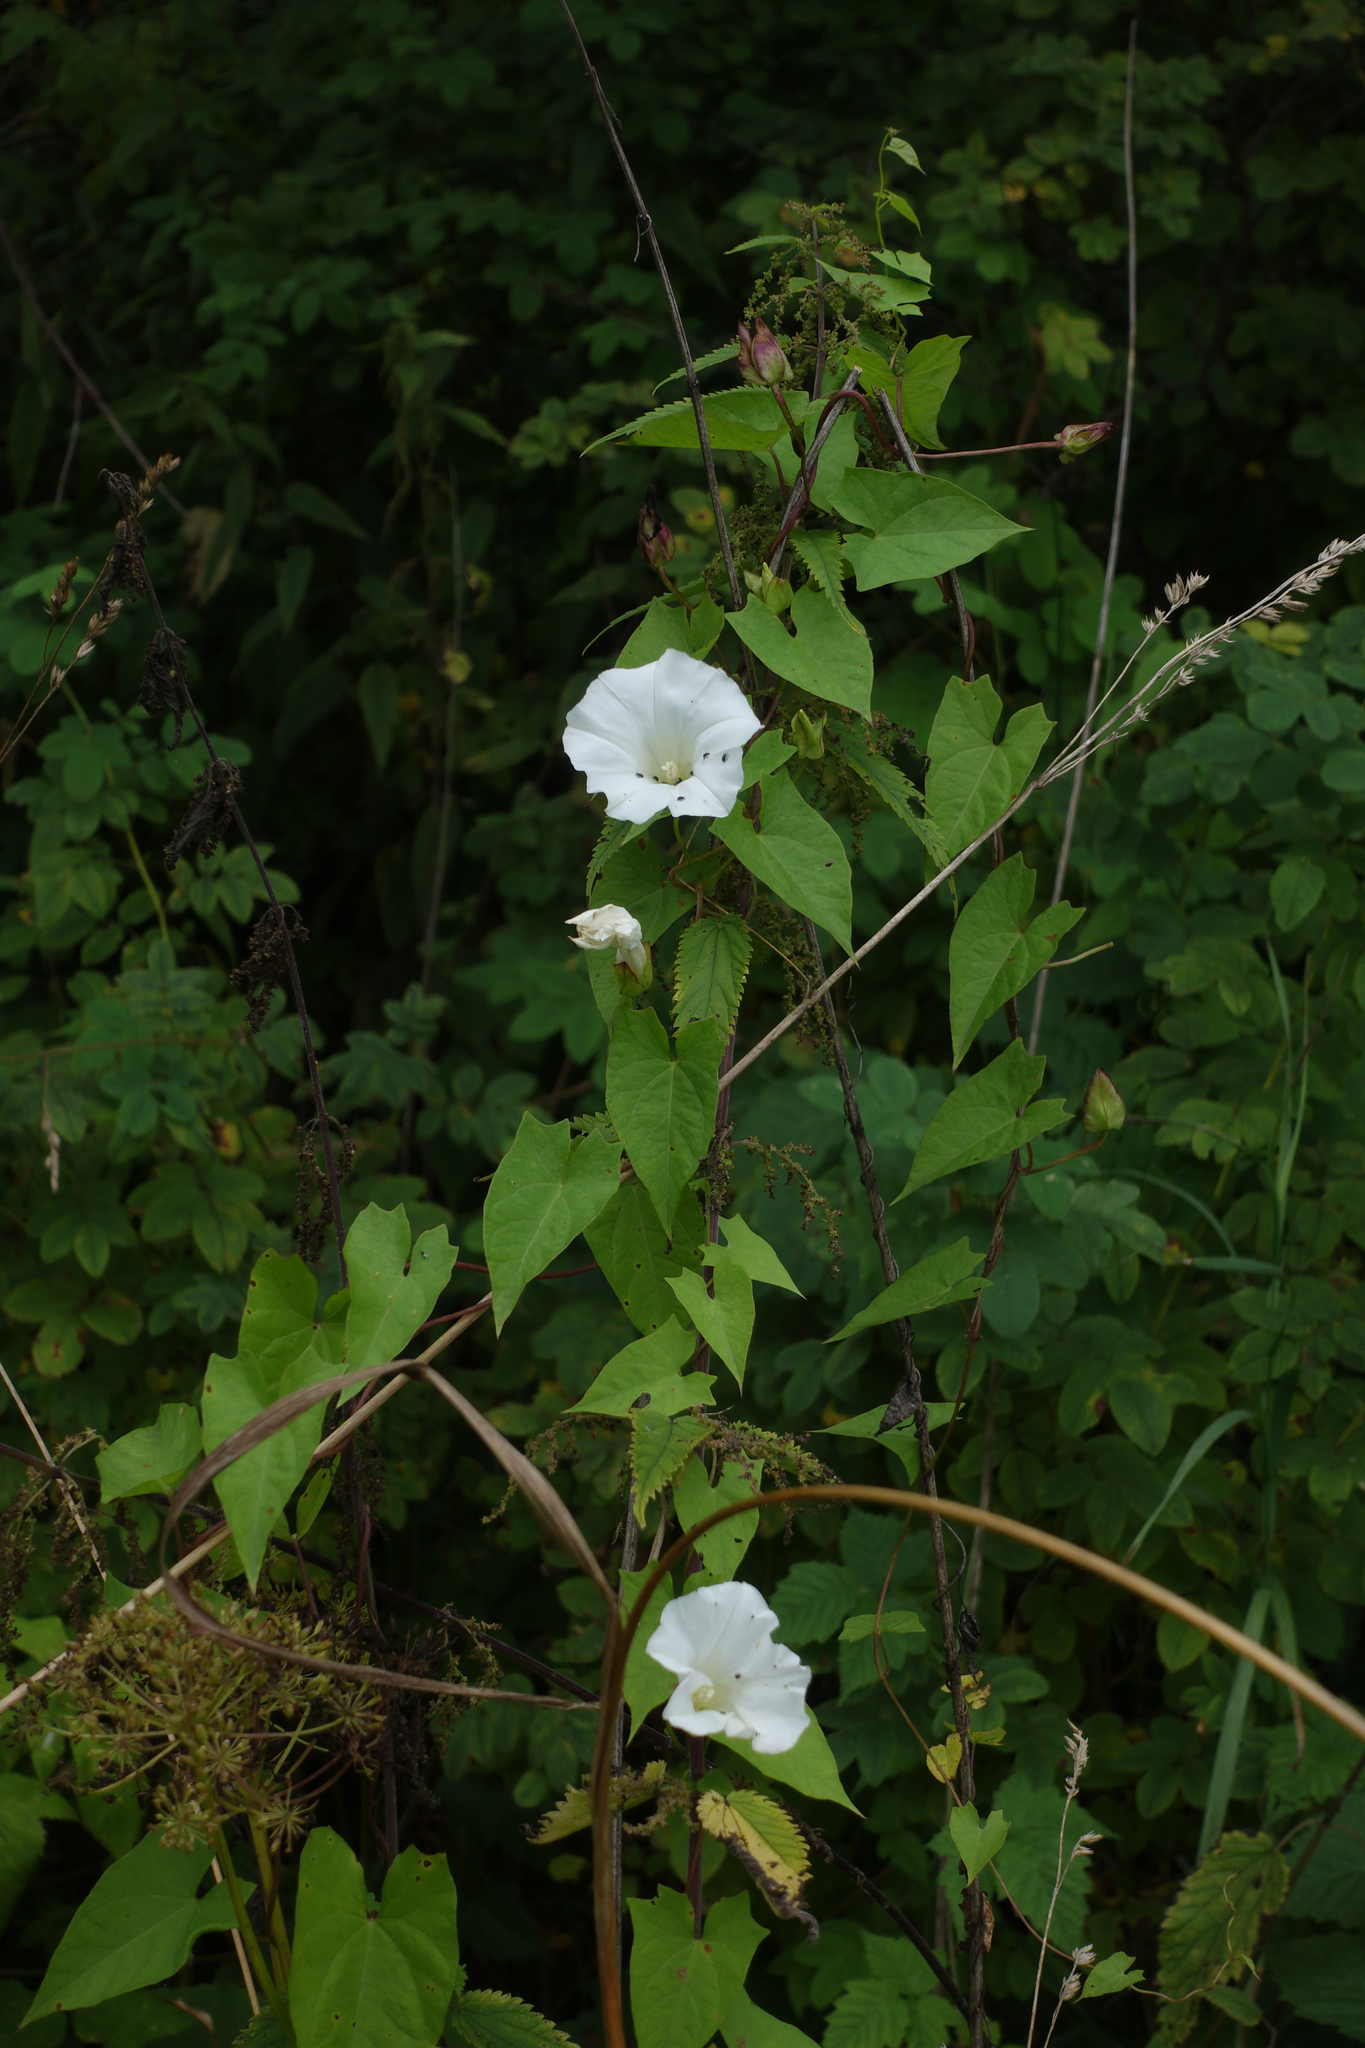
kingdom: Plantae
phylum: Tracheophyta
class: Magnoliopsida
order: Solanales
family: Convolvulaceae
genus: Calystegia
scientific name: Calystegia sepium
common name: Hedge bindweed
